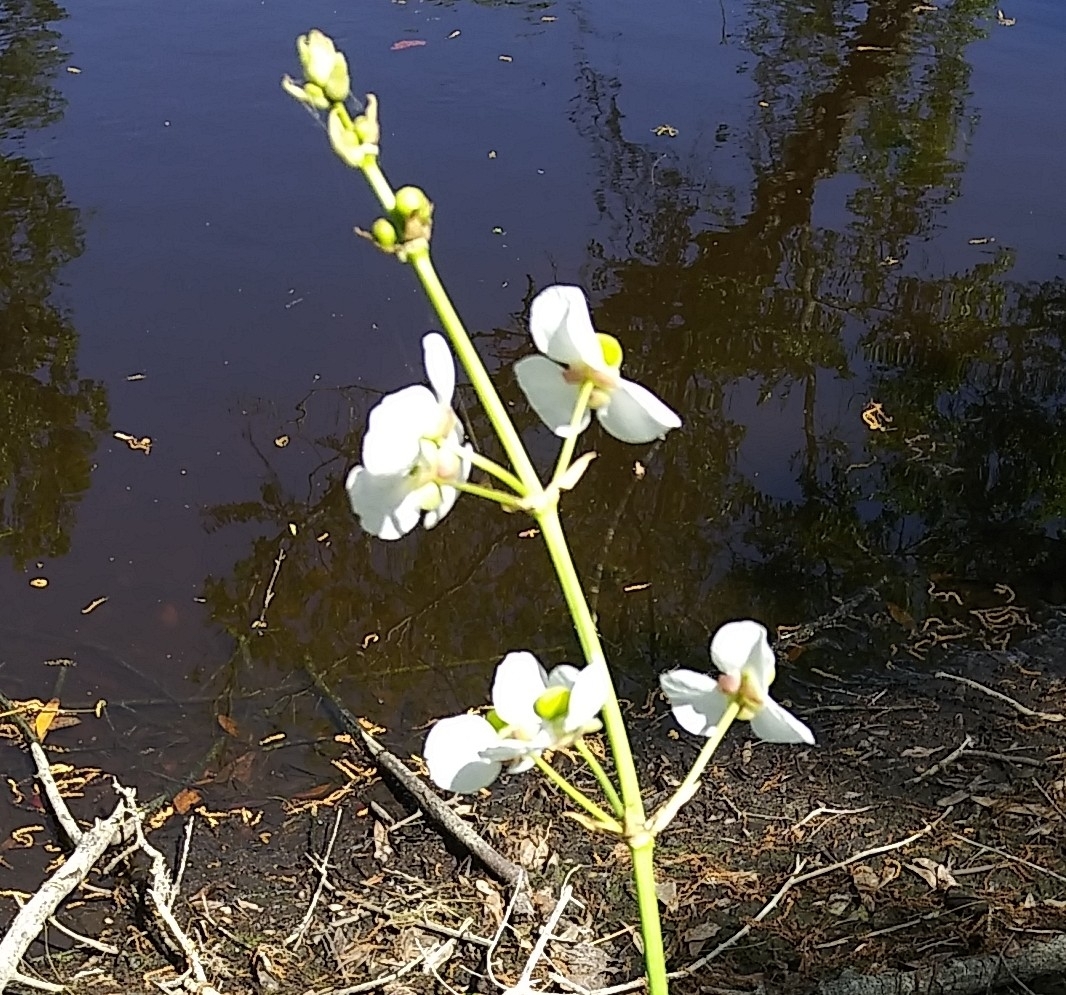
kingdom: Plantae
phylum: Tracheophyta
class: Liliopsida
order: Alismatales
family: Alismataceae
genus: Sagittaria
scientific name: Sagittaria lancifolia
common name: Lance-leaf arrowhead
